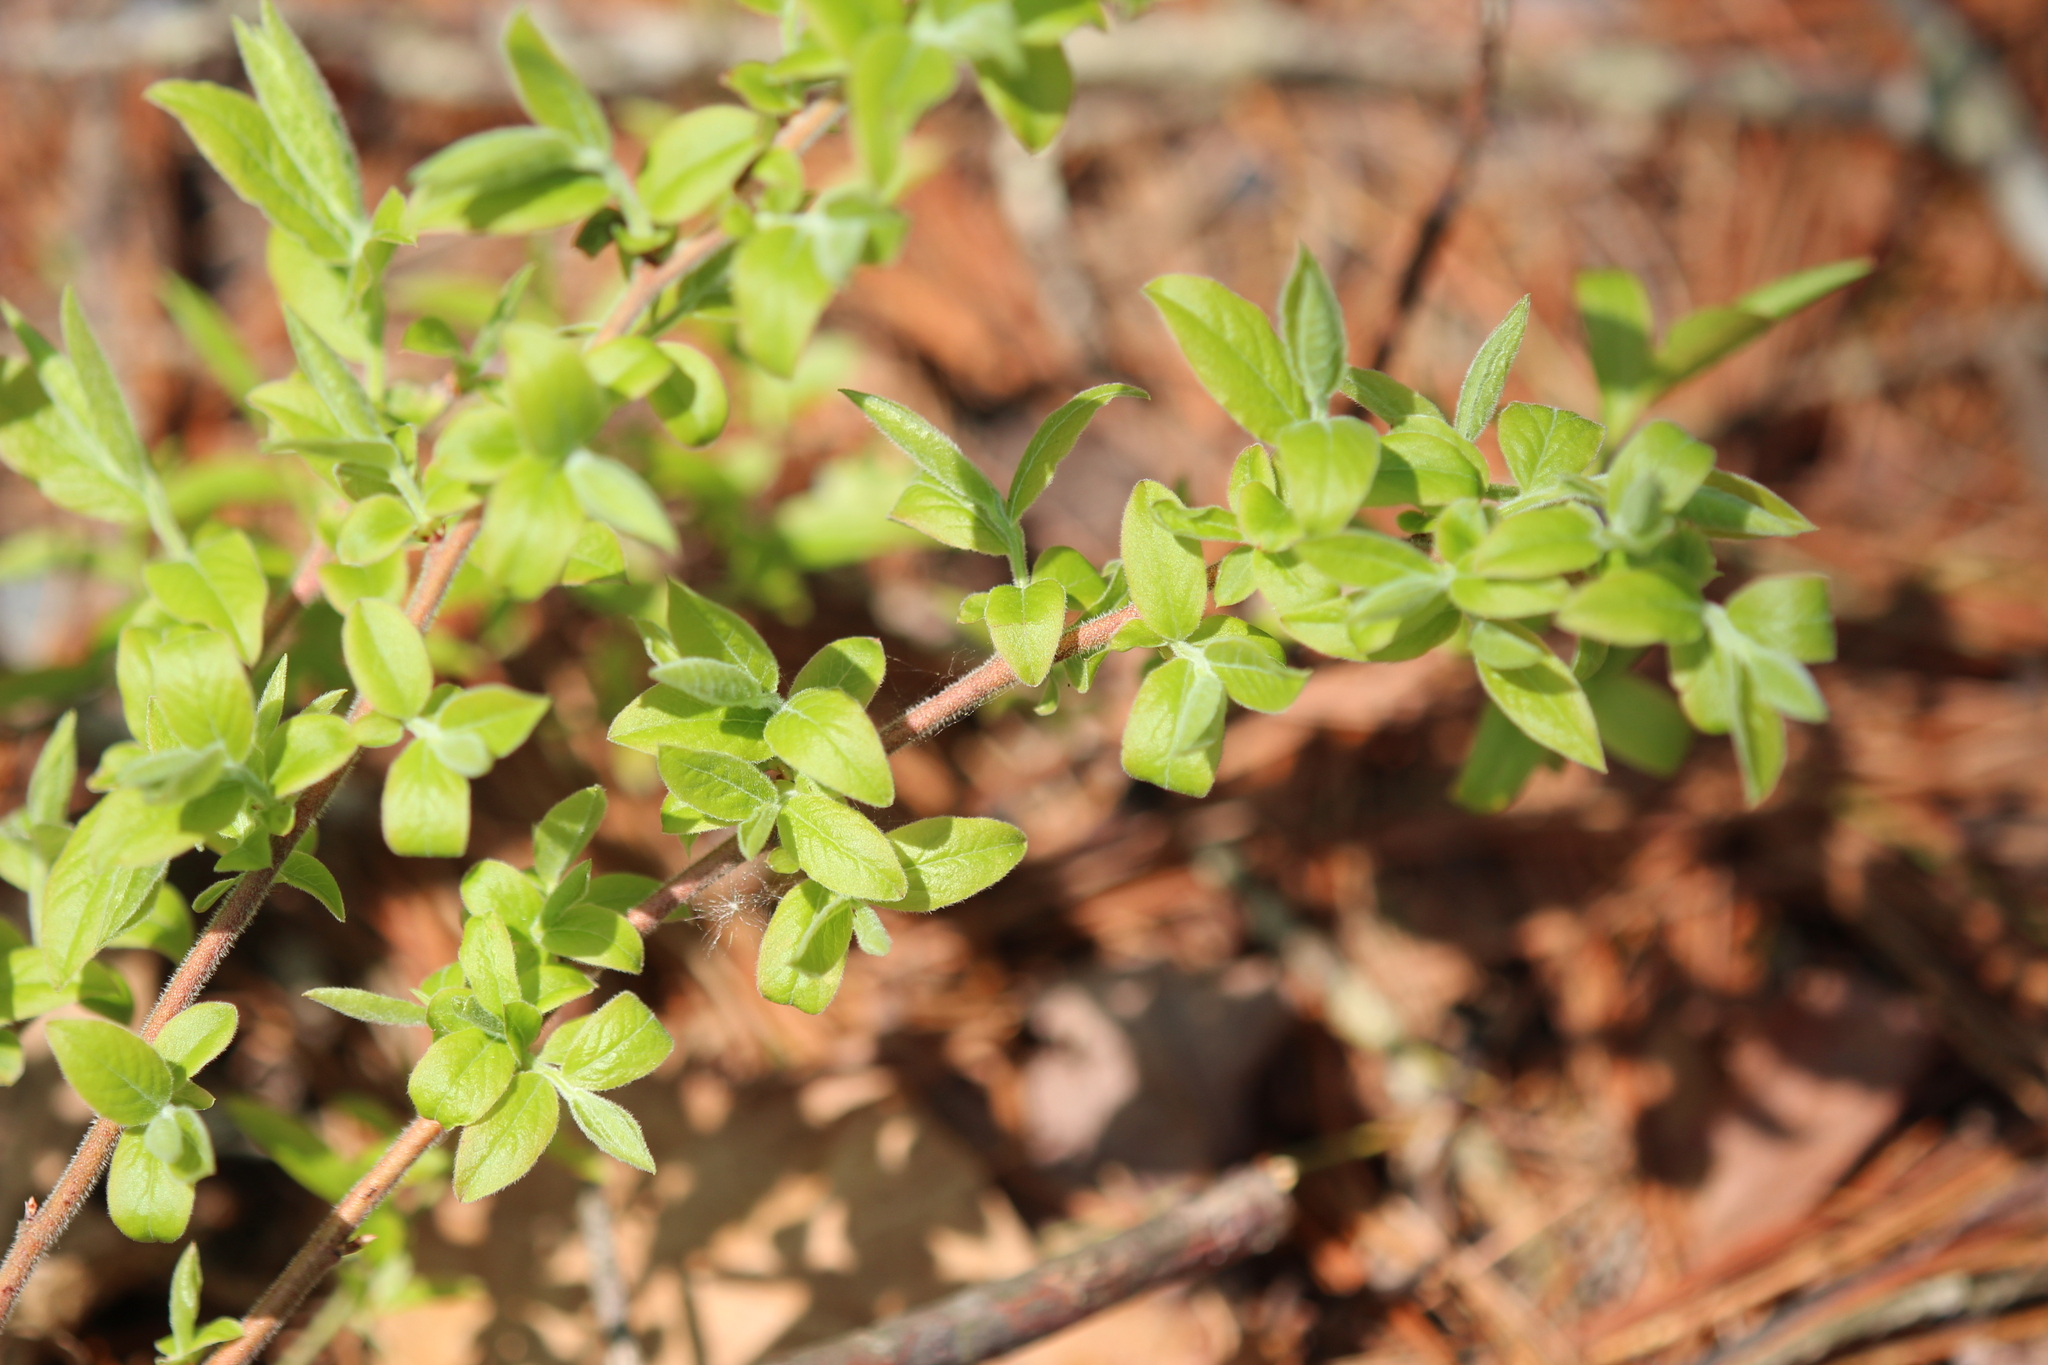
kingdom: Plantae
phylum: Tracheophyta
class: Magnoliopsida
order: Ericales
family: Ericaceae
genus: Vaccinium
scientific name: Vaccinium myrtilloides
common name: Canada blueberry
